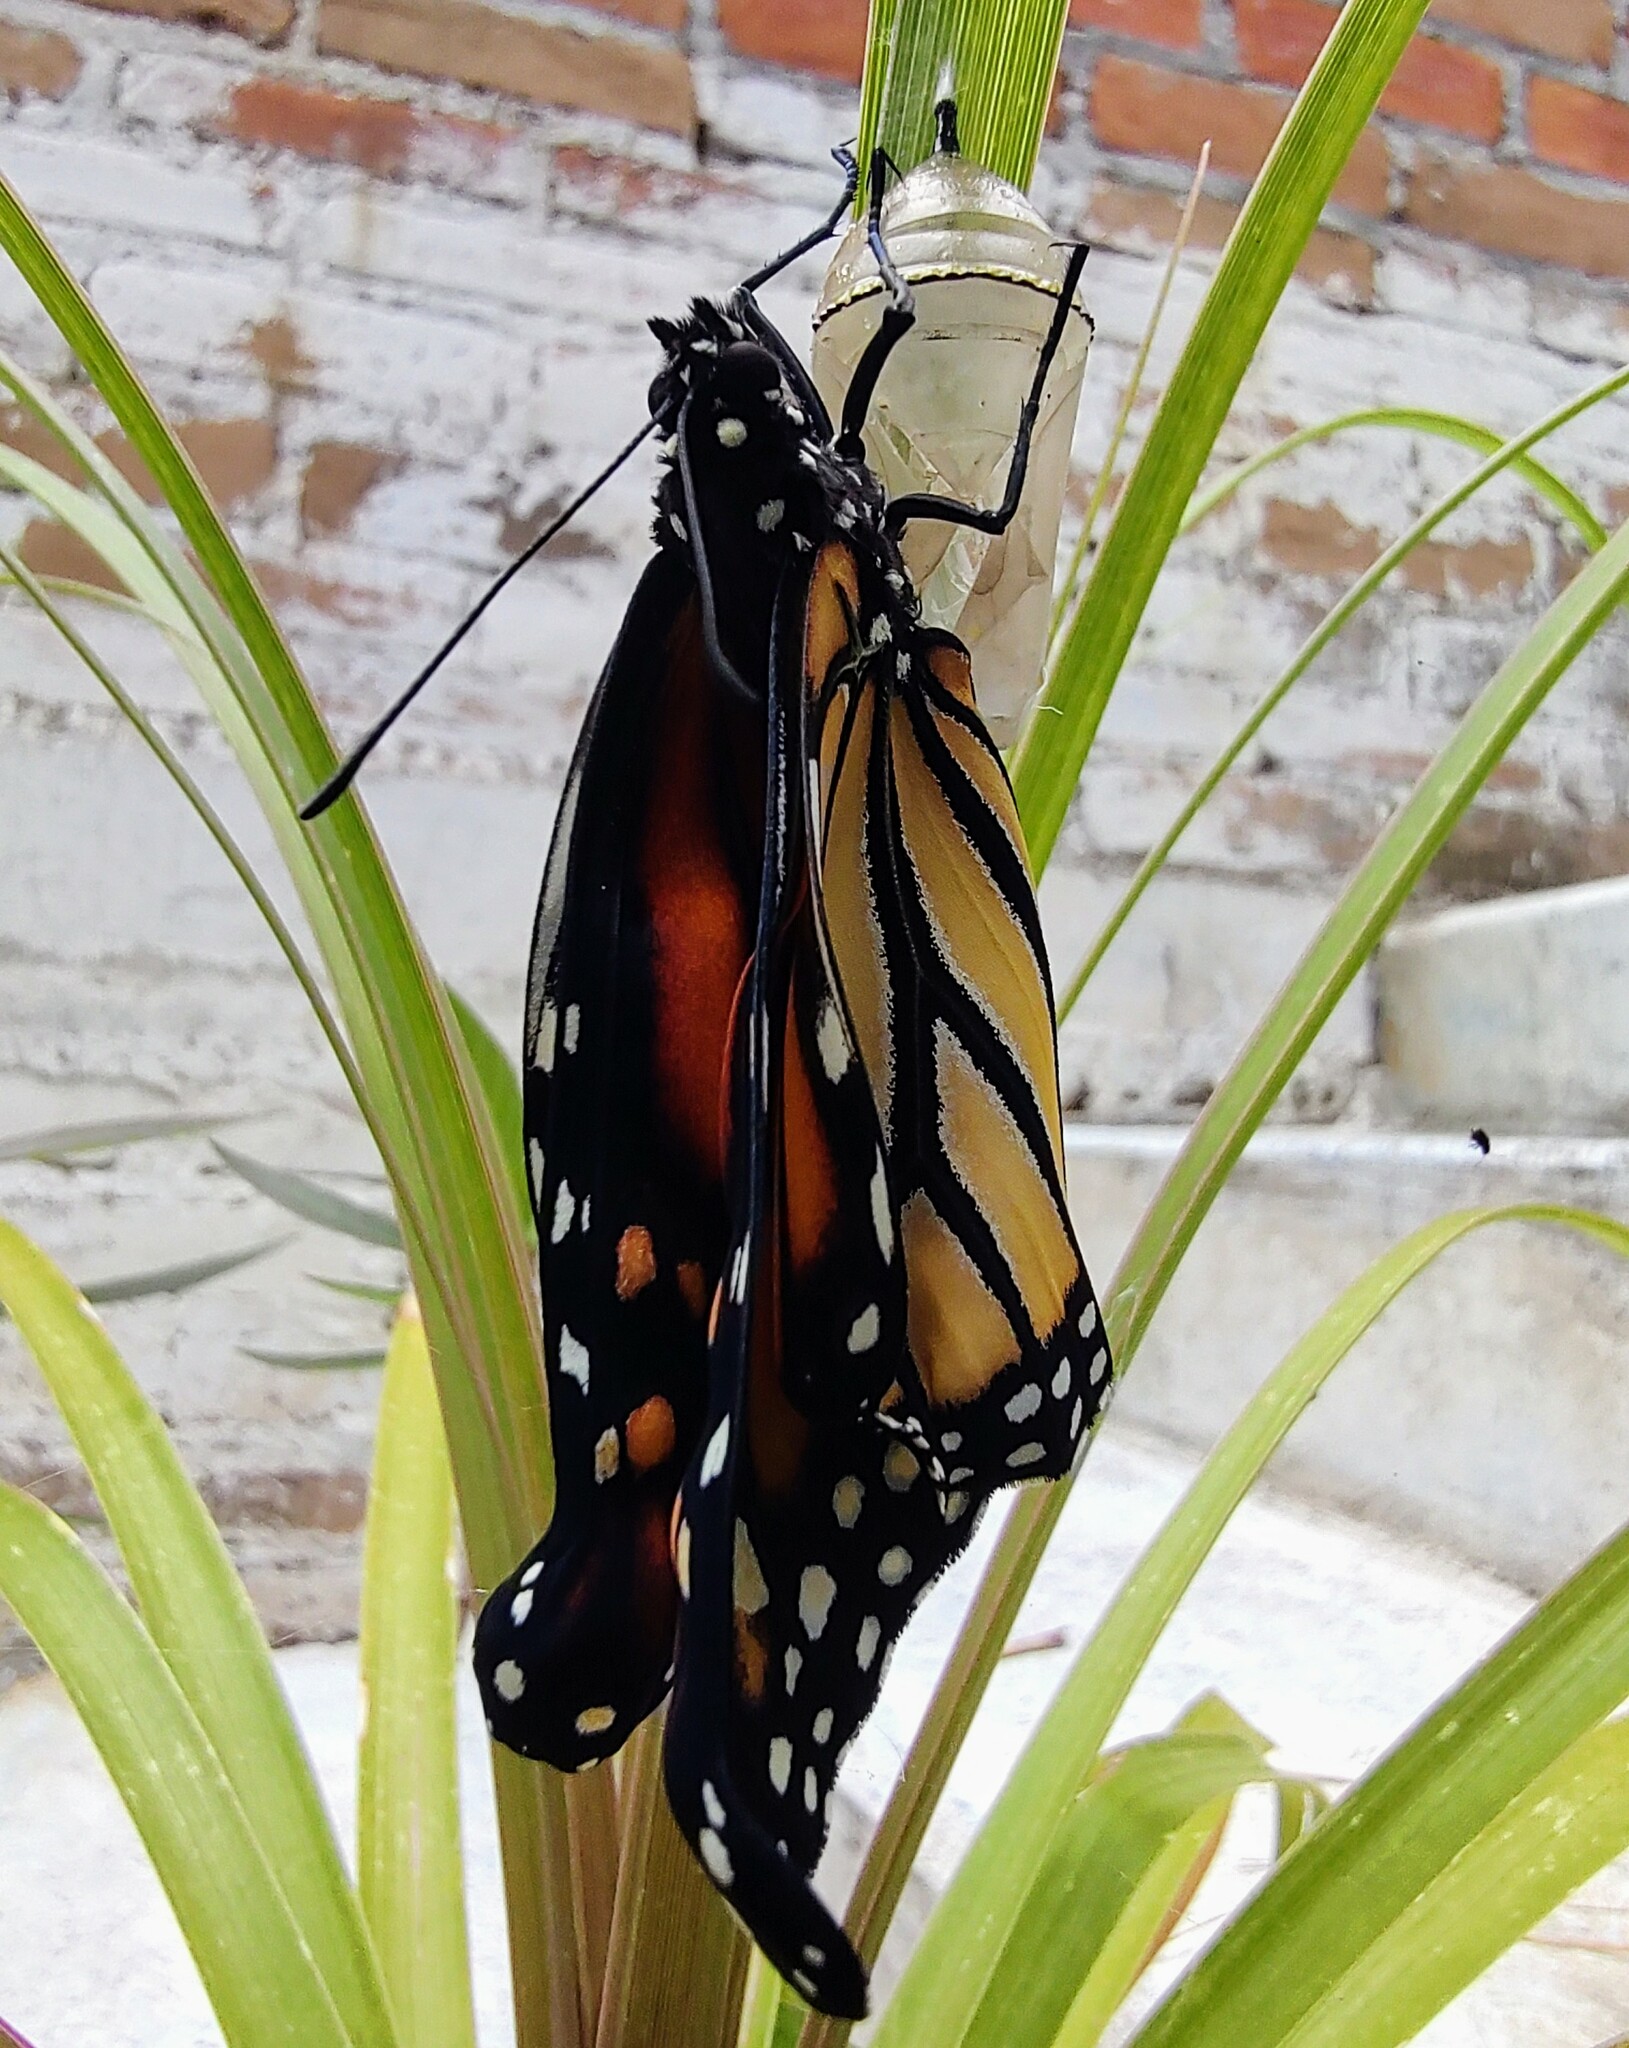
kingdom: Animalia
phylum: Arthropoda
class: Insecta
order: Lepidoptera
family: Nymphalidae
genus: Danaus
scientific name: Danaus plexippus
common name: Monarch
